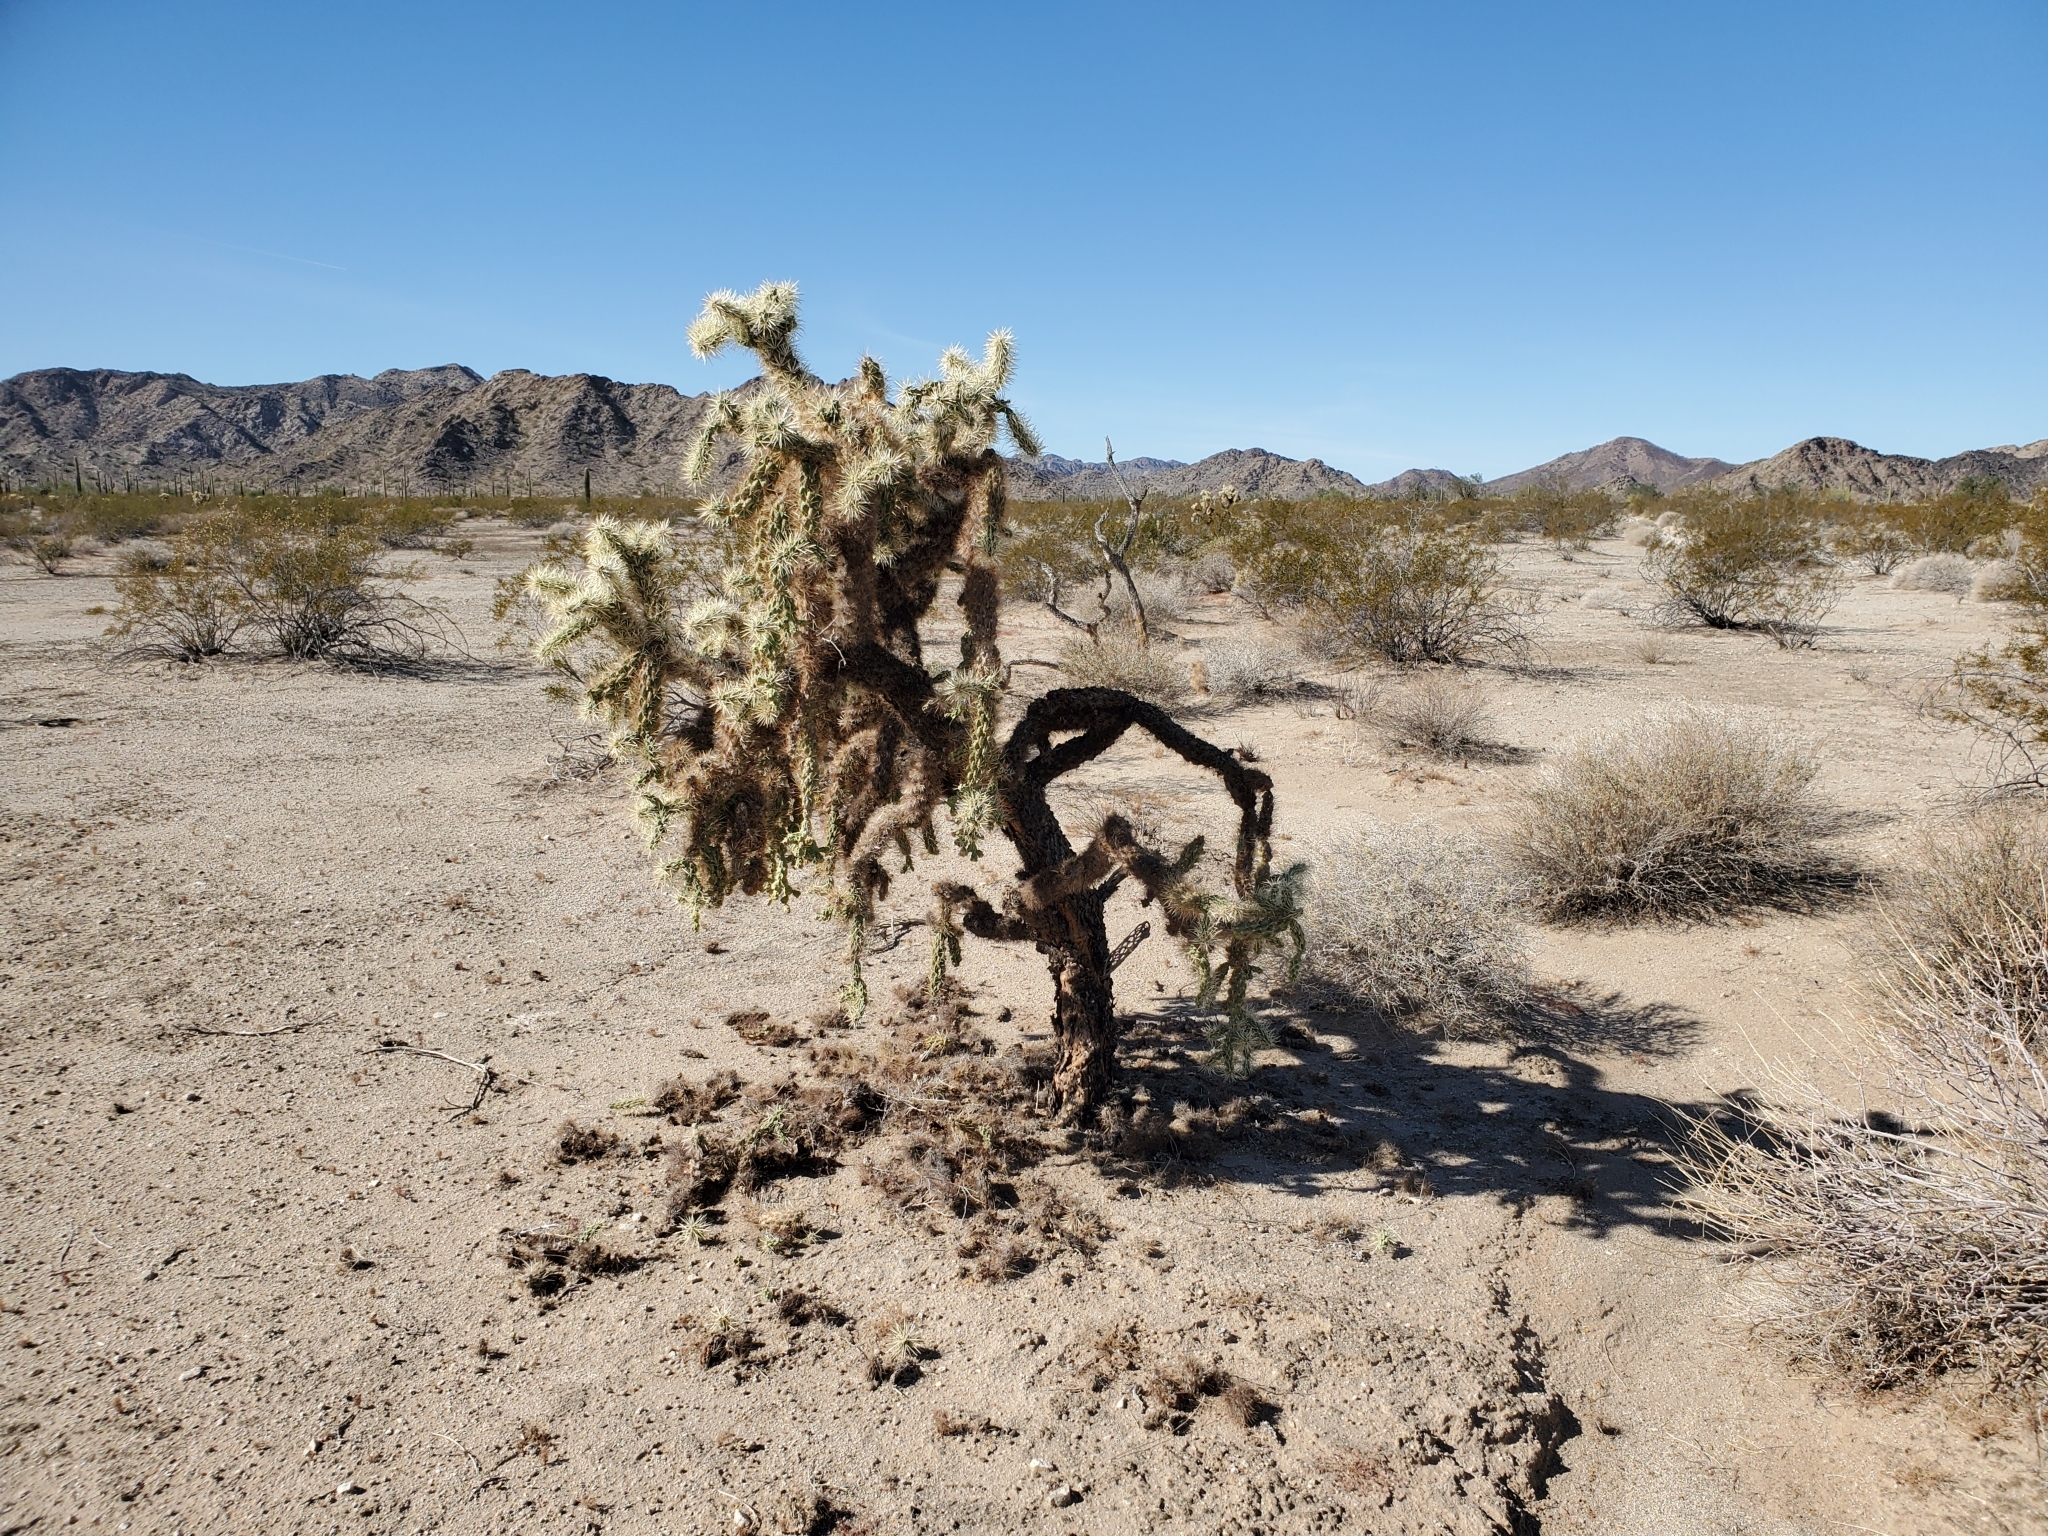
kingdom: Plantae
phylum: Tracheophyta
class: Magnoliopsida
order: Caryophyllales
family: Cactaceae
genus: Cylindropuntia
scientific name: Cylindropuntia fulgida
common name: Jumping cholla
